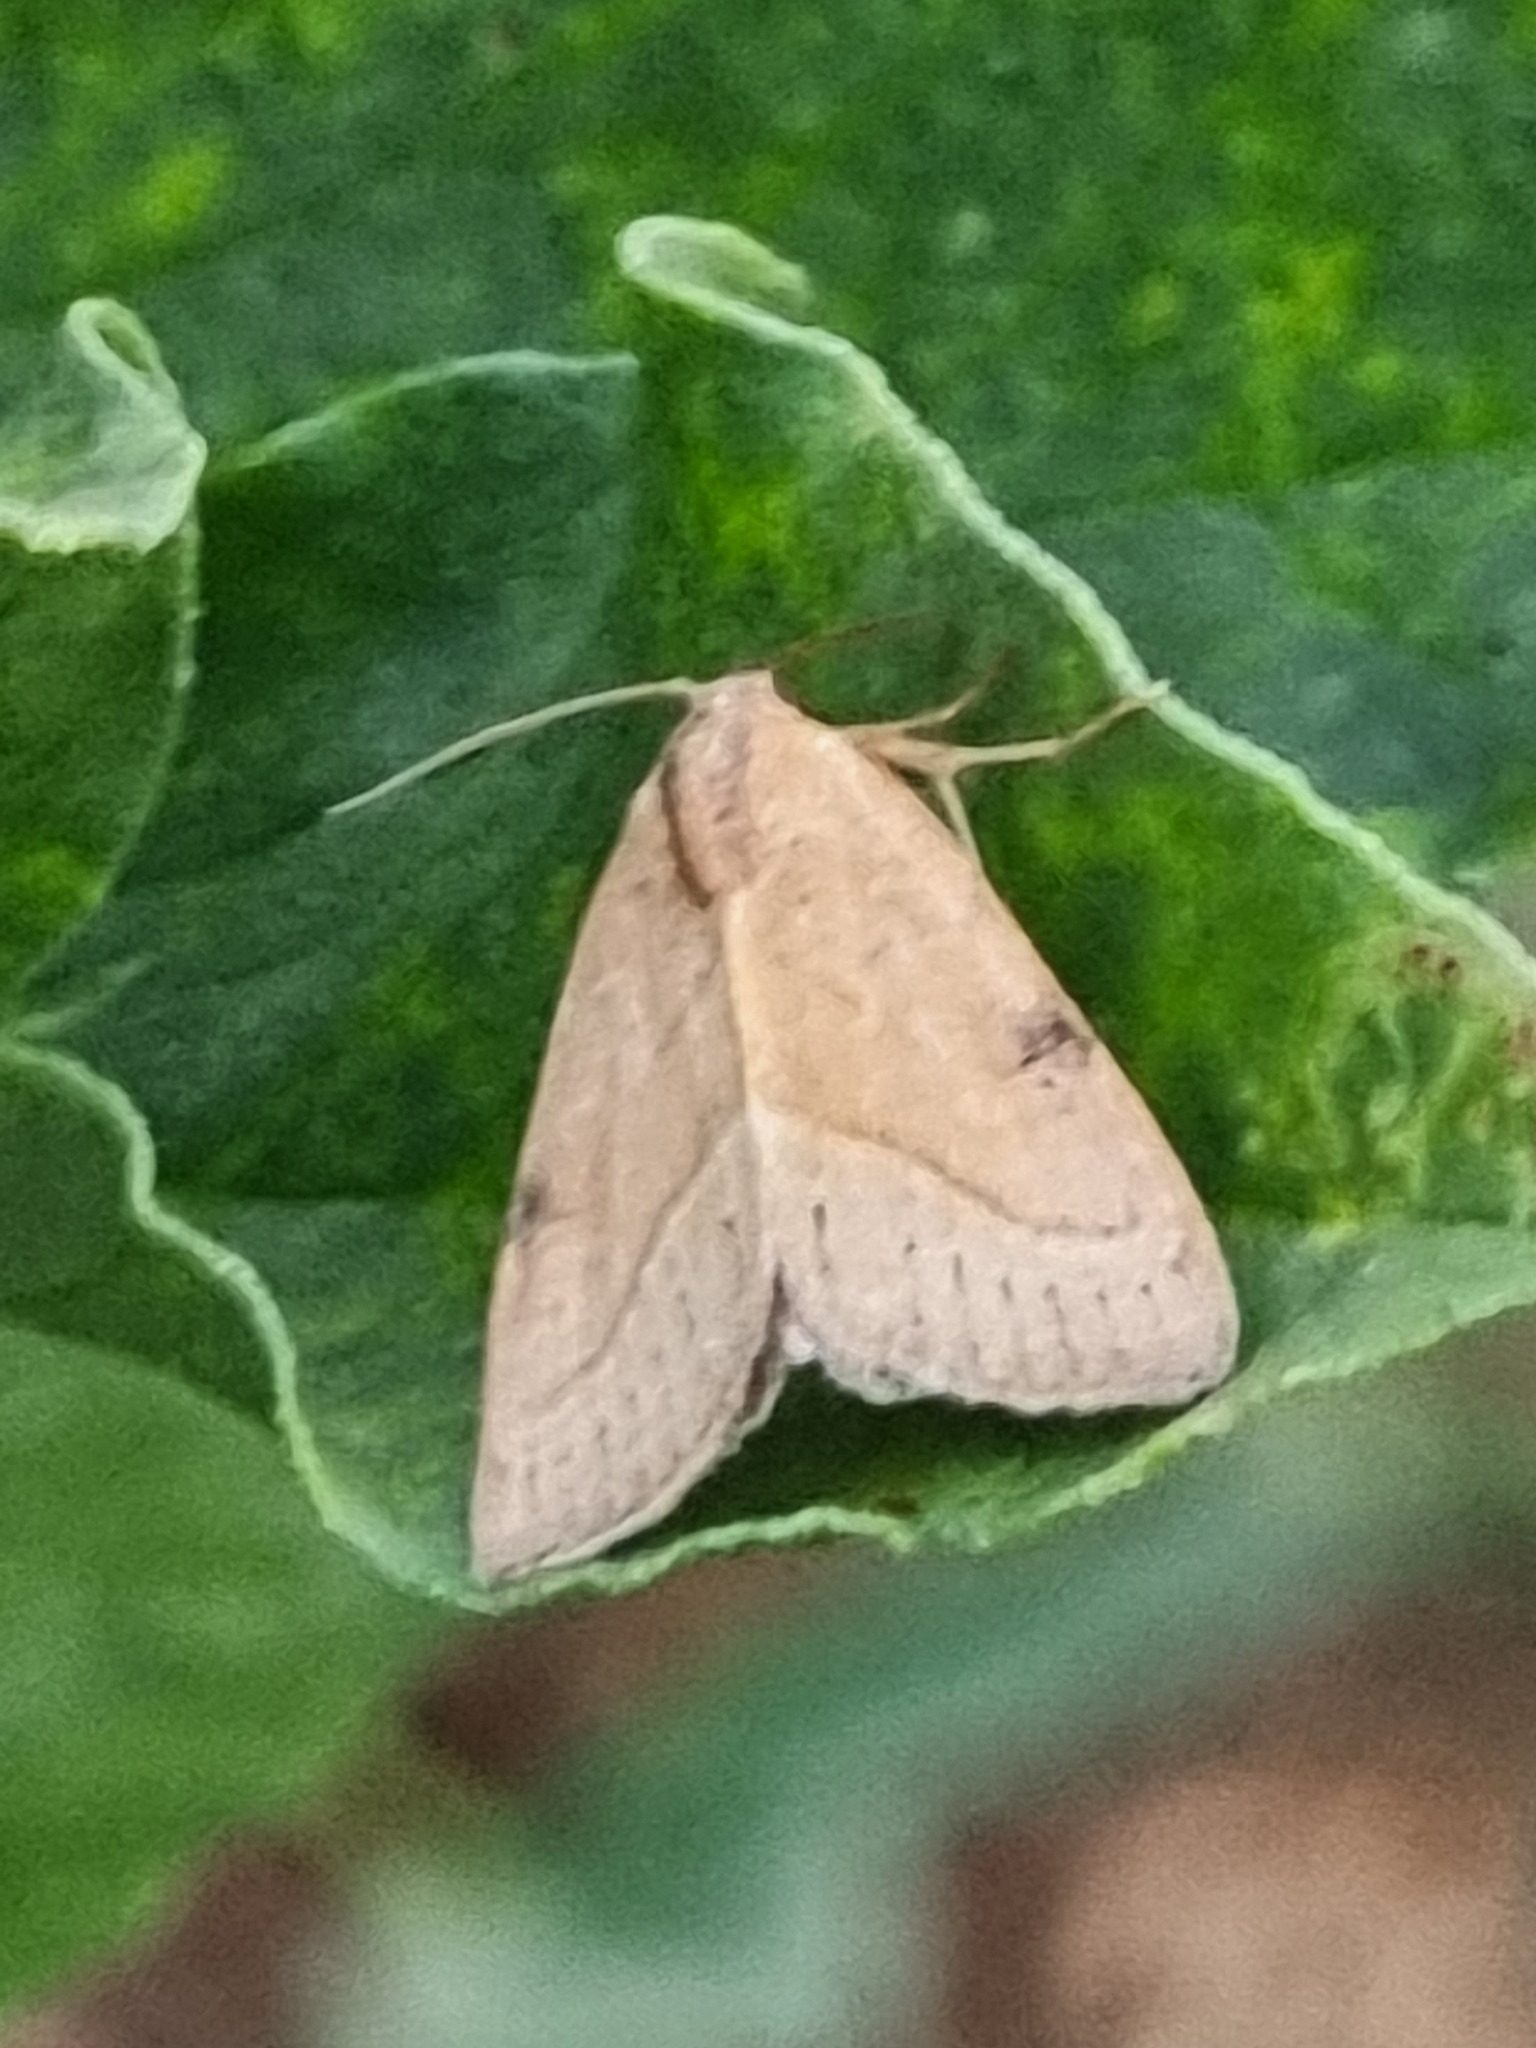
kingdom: Animalia
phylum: Arthropoda
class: Insecta
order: Lepidoptera
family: Noctuidae
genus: Galgula
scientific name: Galgula partita
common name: Wedgeling
